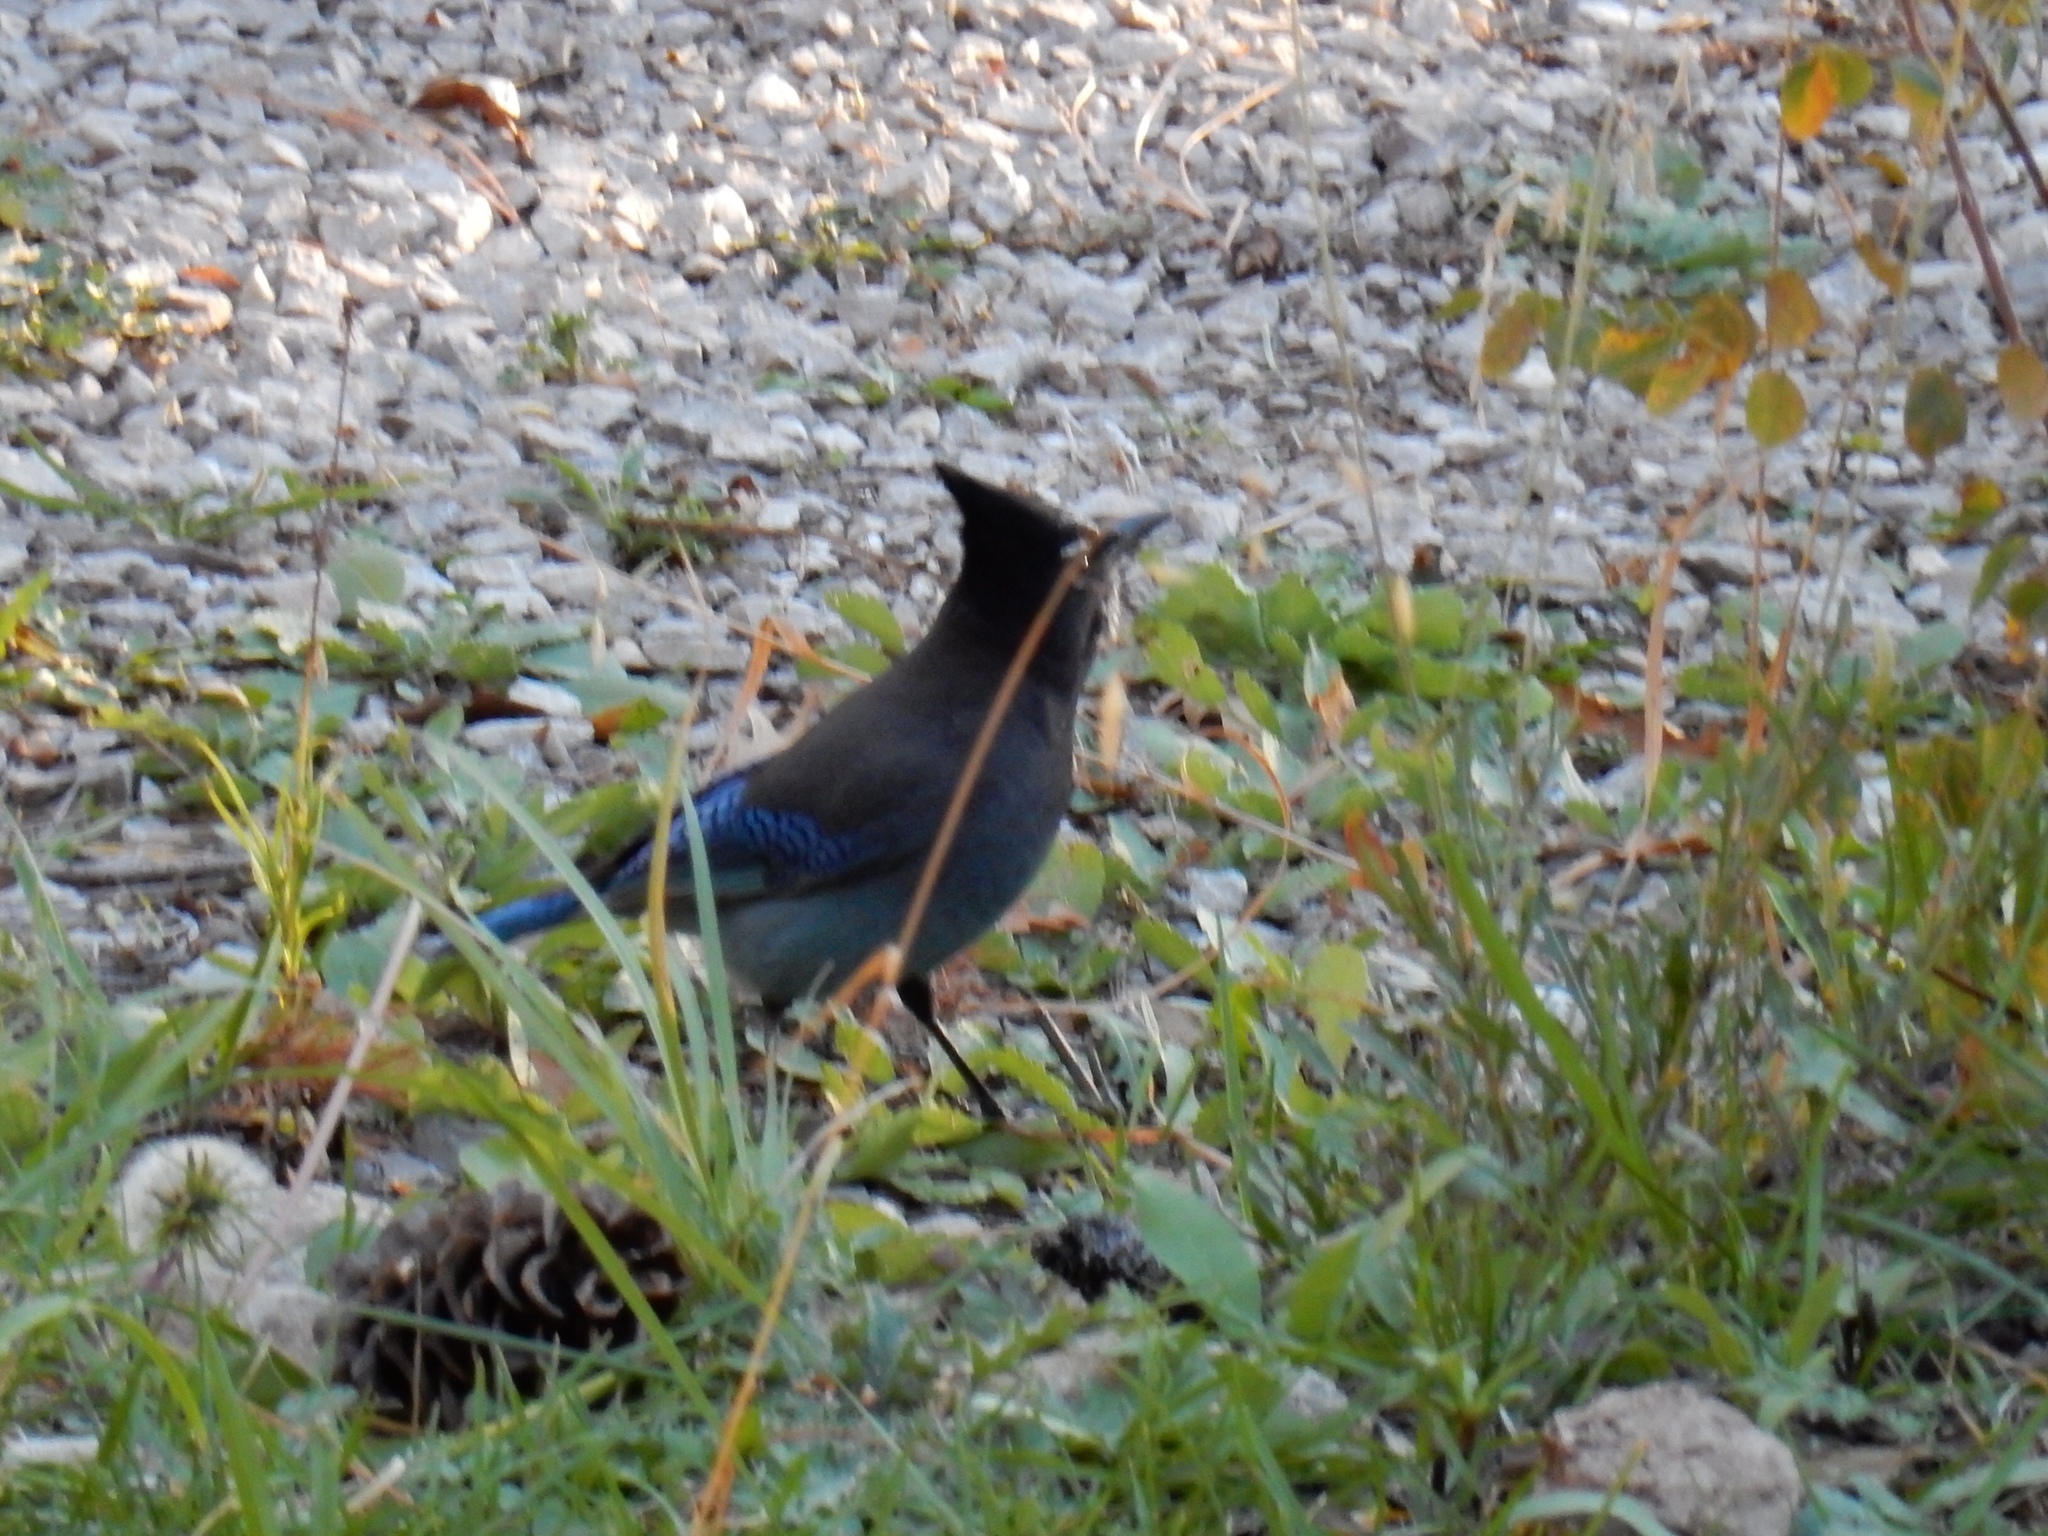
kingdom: Animalia
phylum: Chordata
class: Aves
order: Passeriformes
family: Corvidae
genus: Cyanocitta
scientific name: Cyanocitta stelleri
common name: Steller's jay
